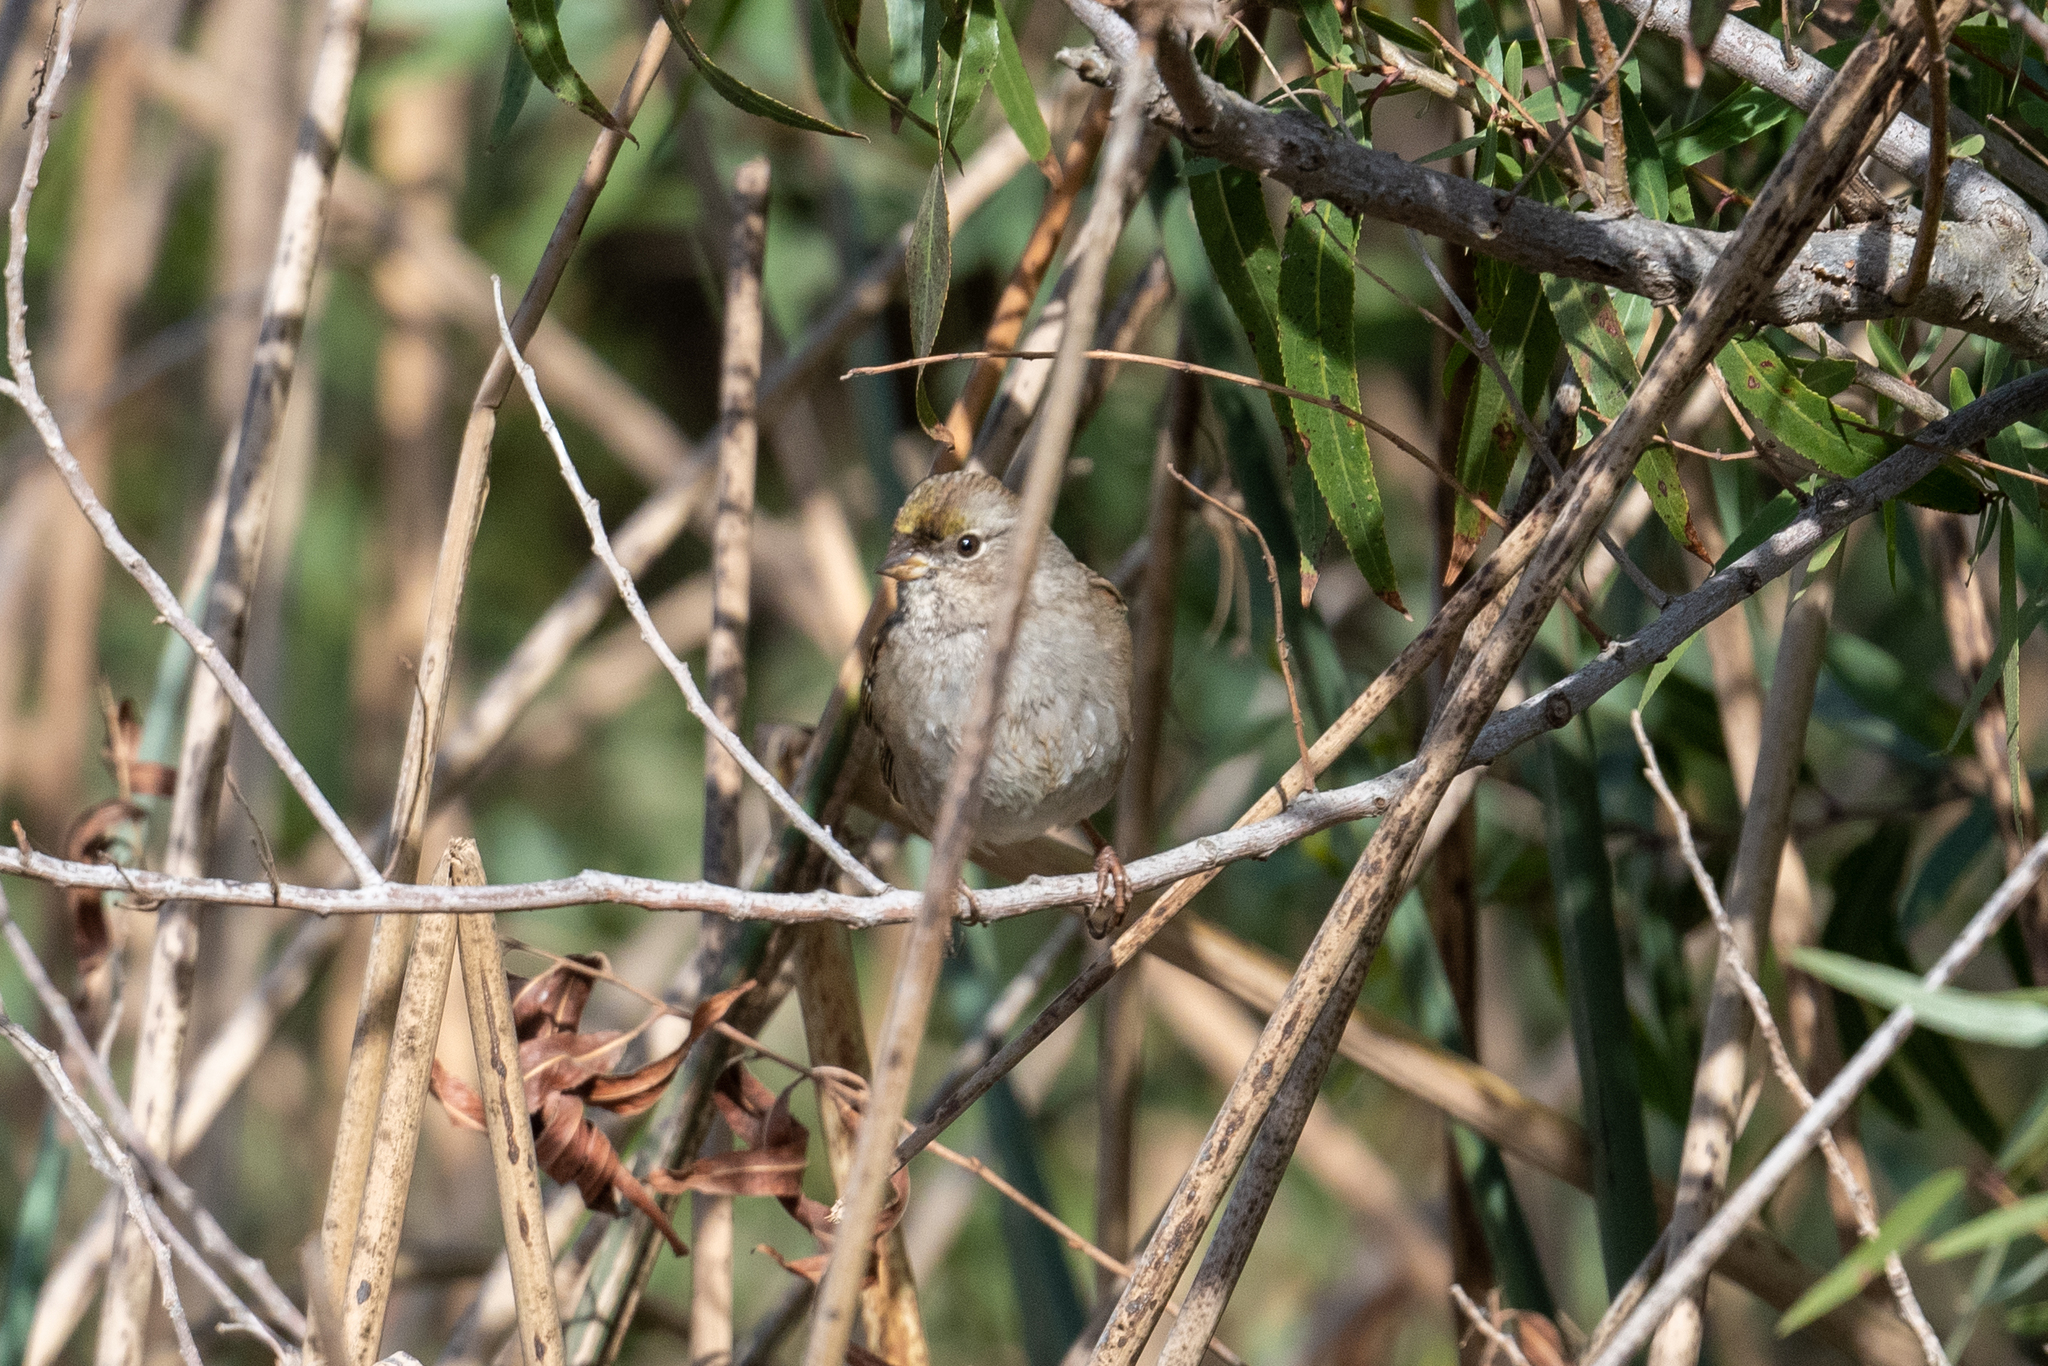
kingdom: Animalia
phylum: Chordata
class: Aves
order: Passeriformes
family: Passerellidae
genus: Zonotrichia
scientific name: Zonotrichia atricapilla
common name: Golden-crowned sparrow
